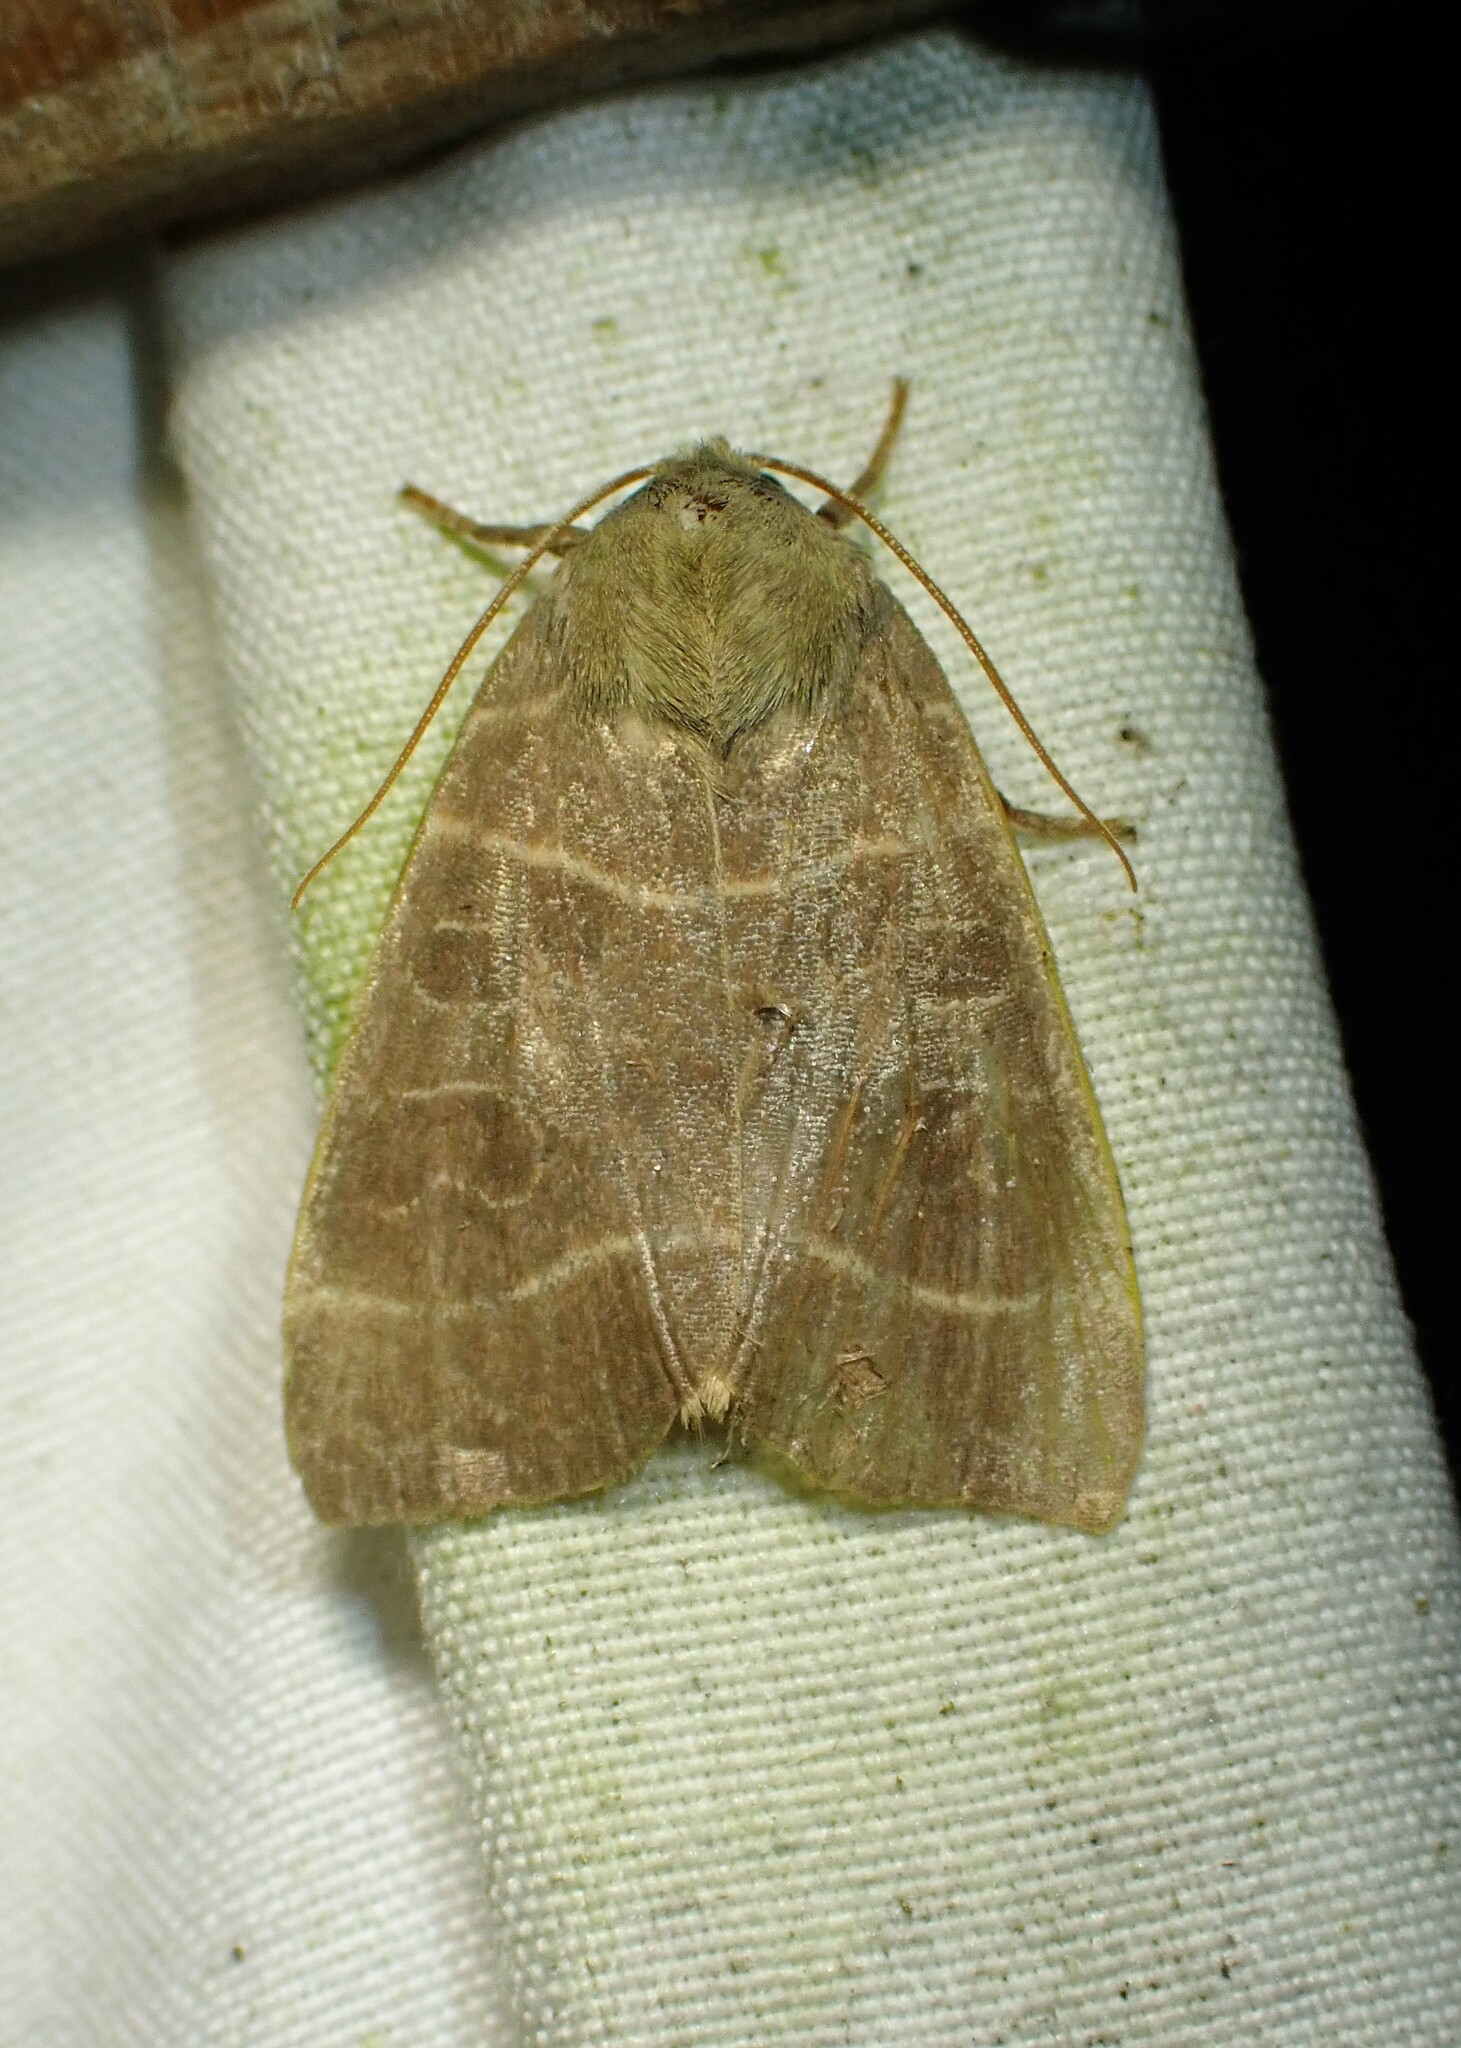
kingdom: Animalia
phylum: Arthropoda
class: Insecta
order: Lepidoptera
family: Noctuidae
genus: Ipimorpha
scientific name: Ipimorpha pleonectusa
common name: Even-lined sallow
